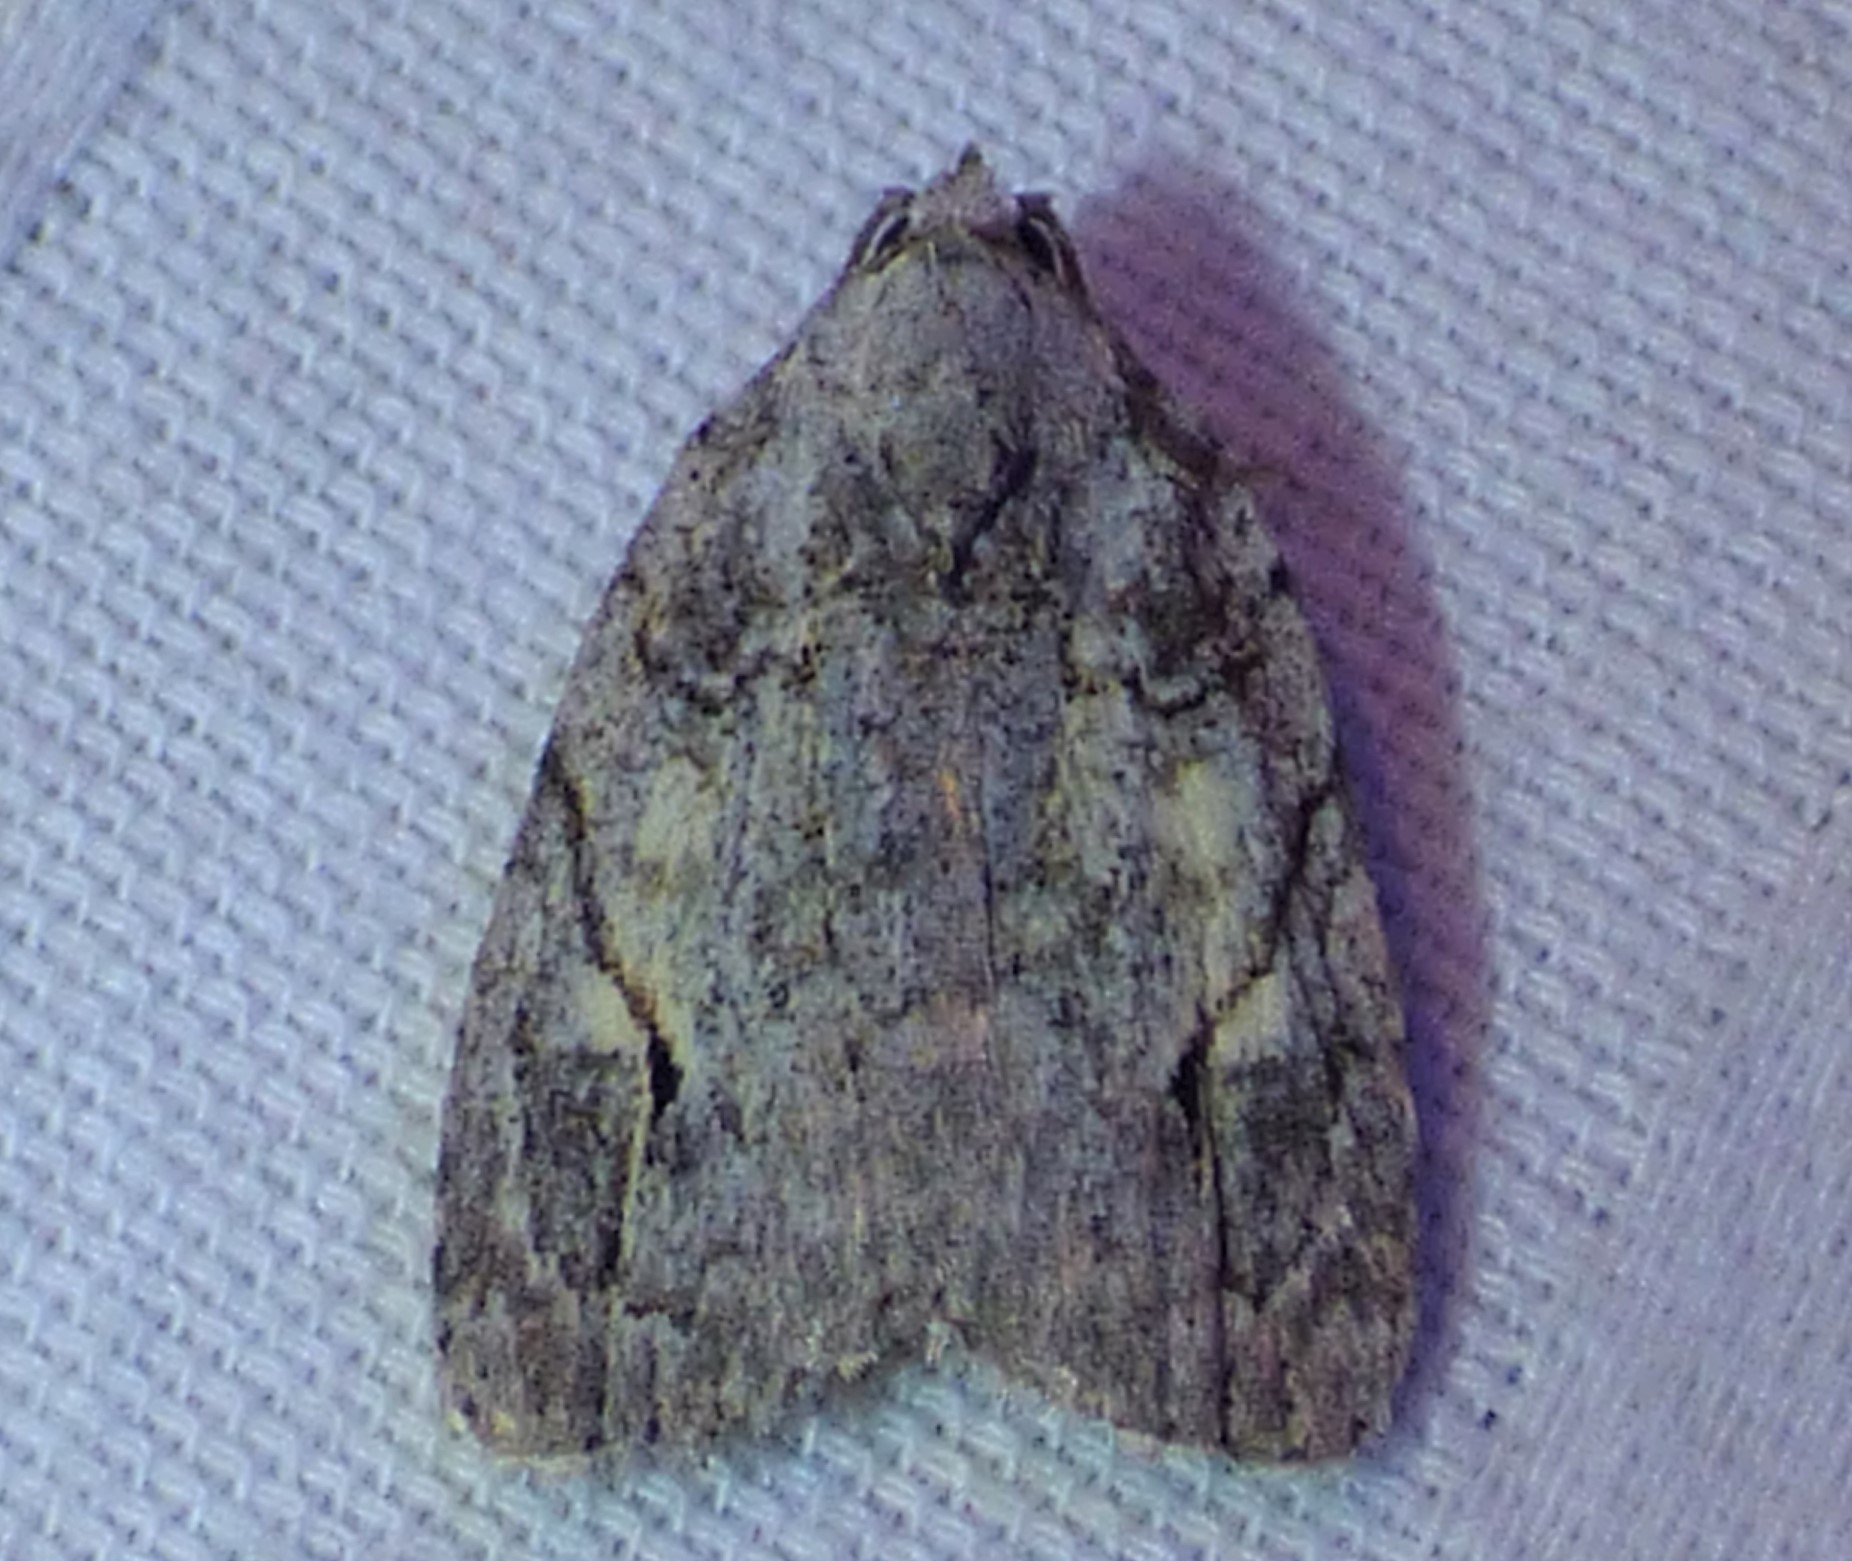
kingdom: Animalia
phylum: Arthropoda
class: Insecta
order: Lepidoptera
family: Noctuidae
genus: Balsa
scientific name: Balsa labecula
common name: White-blotched balsa moth
